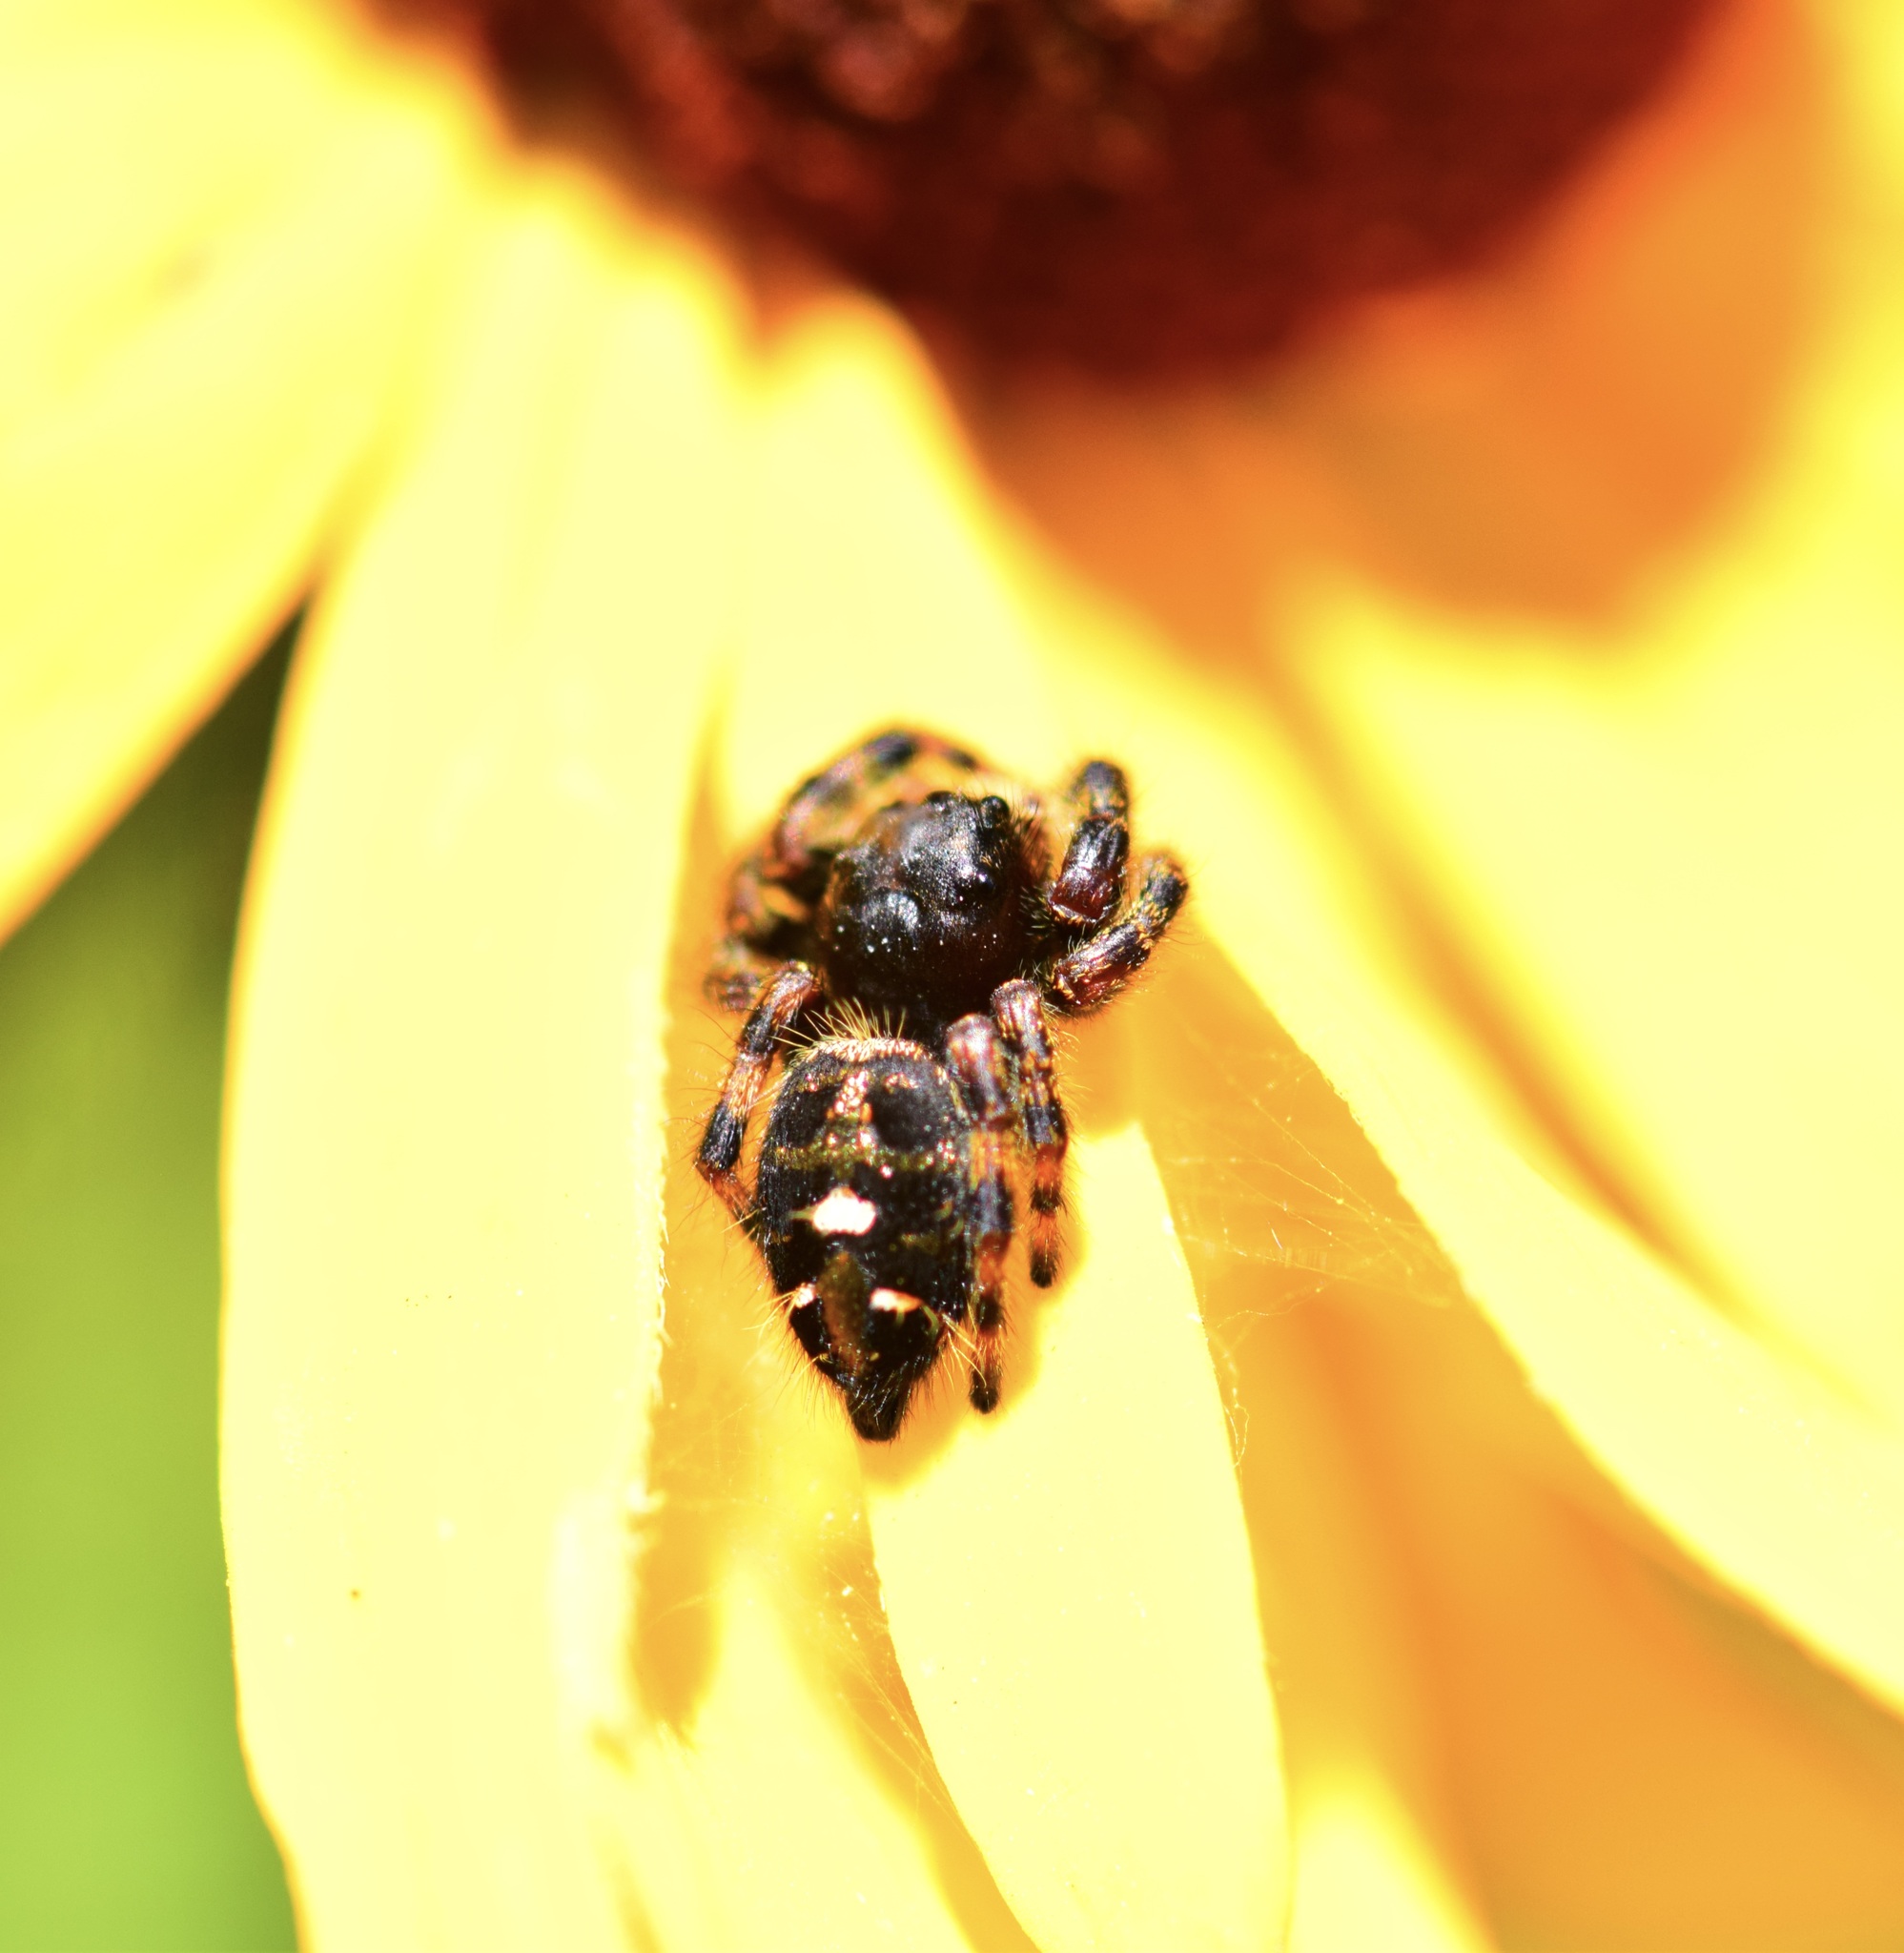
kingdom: Animalia
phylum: Arthropoda
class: Arachnida
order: Araneae
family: Salticidae
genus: Phidippus
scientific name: Phidippus audax
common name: Bold jumper
